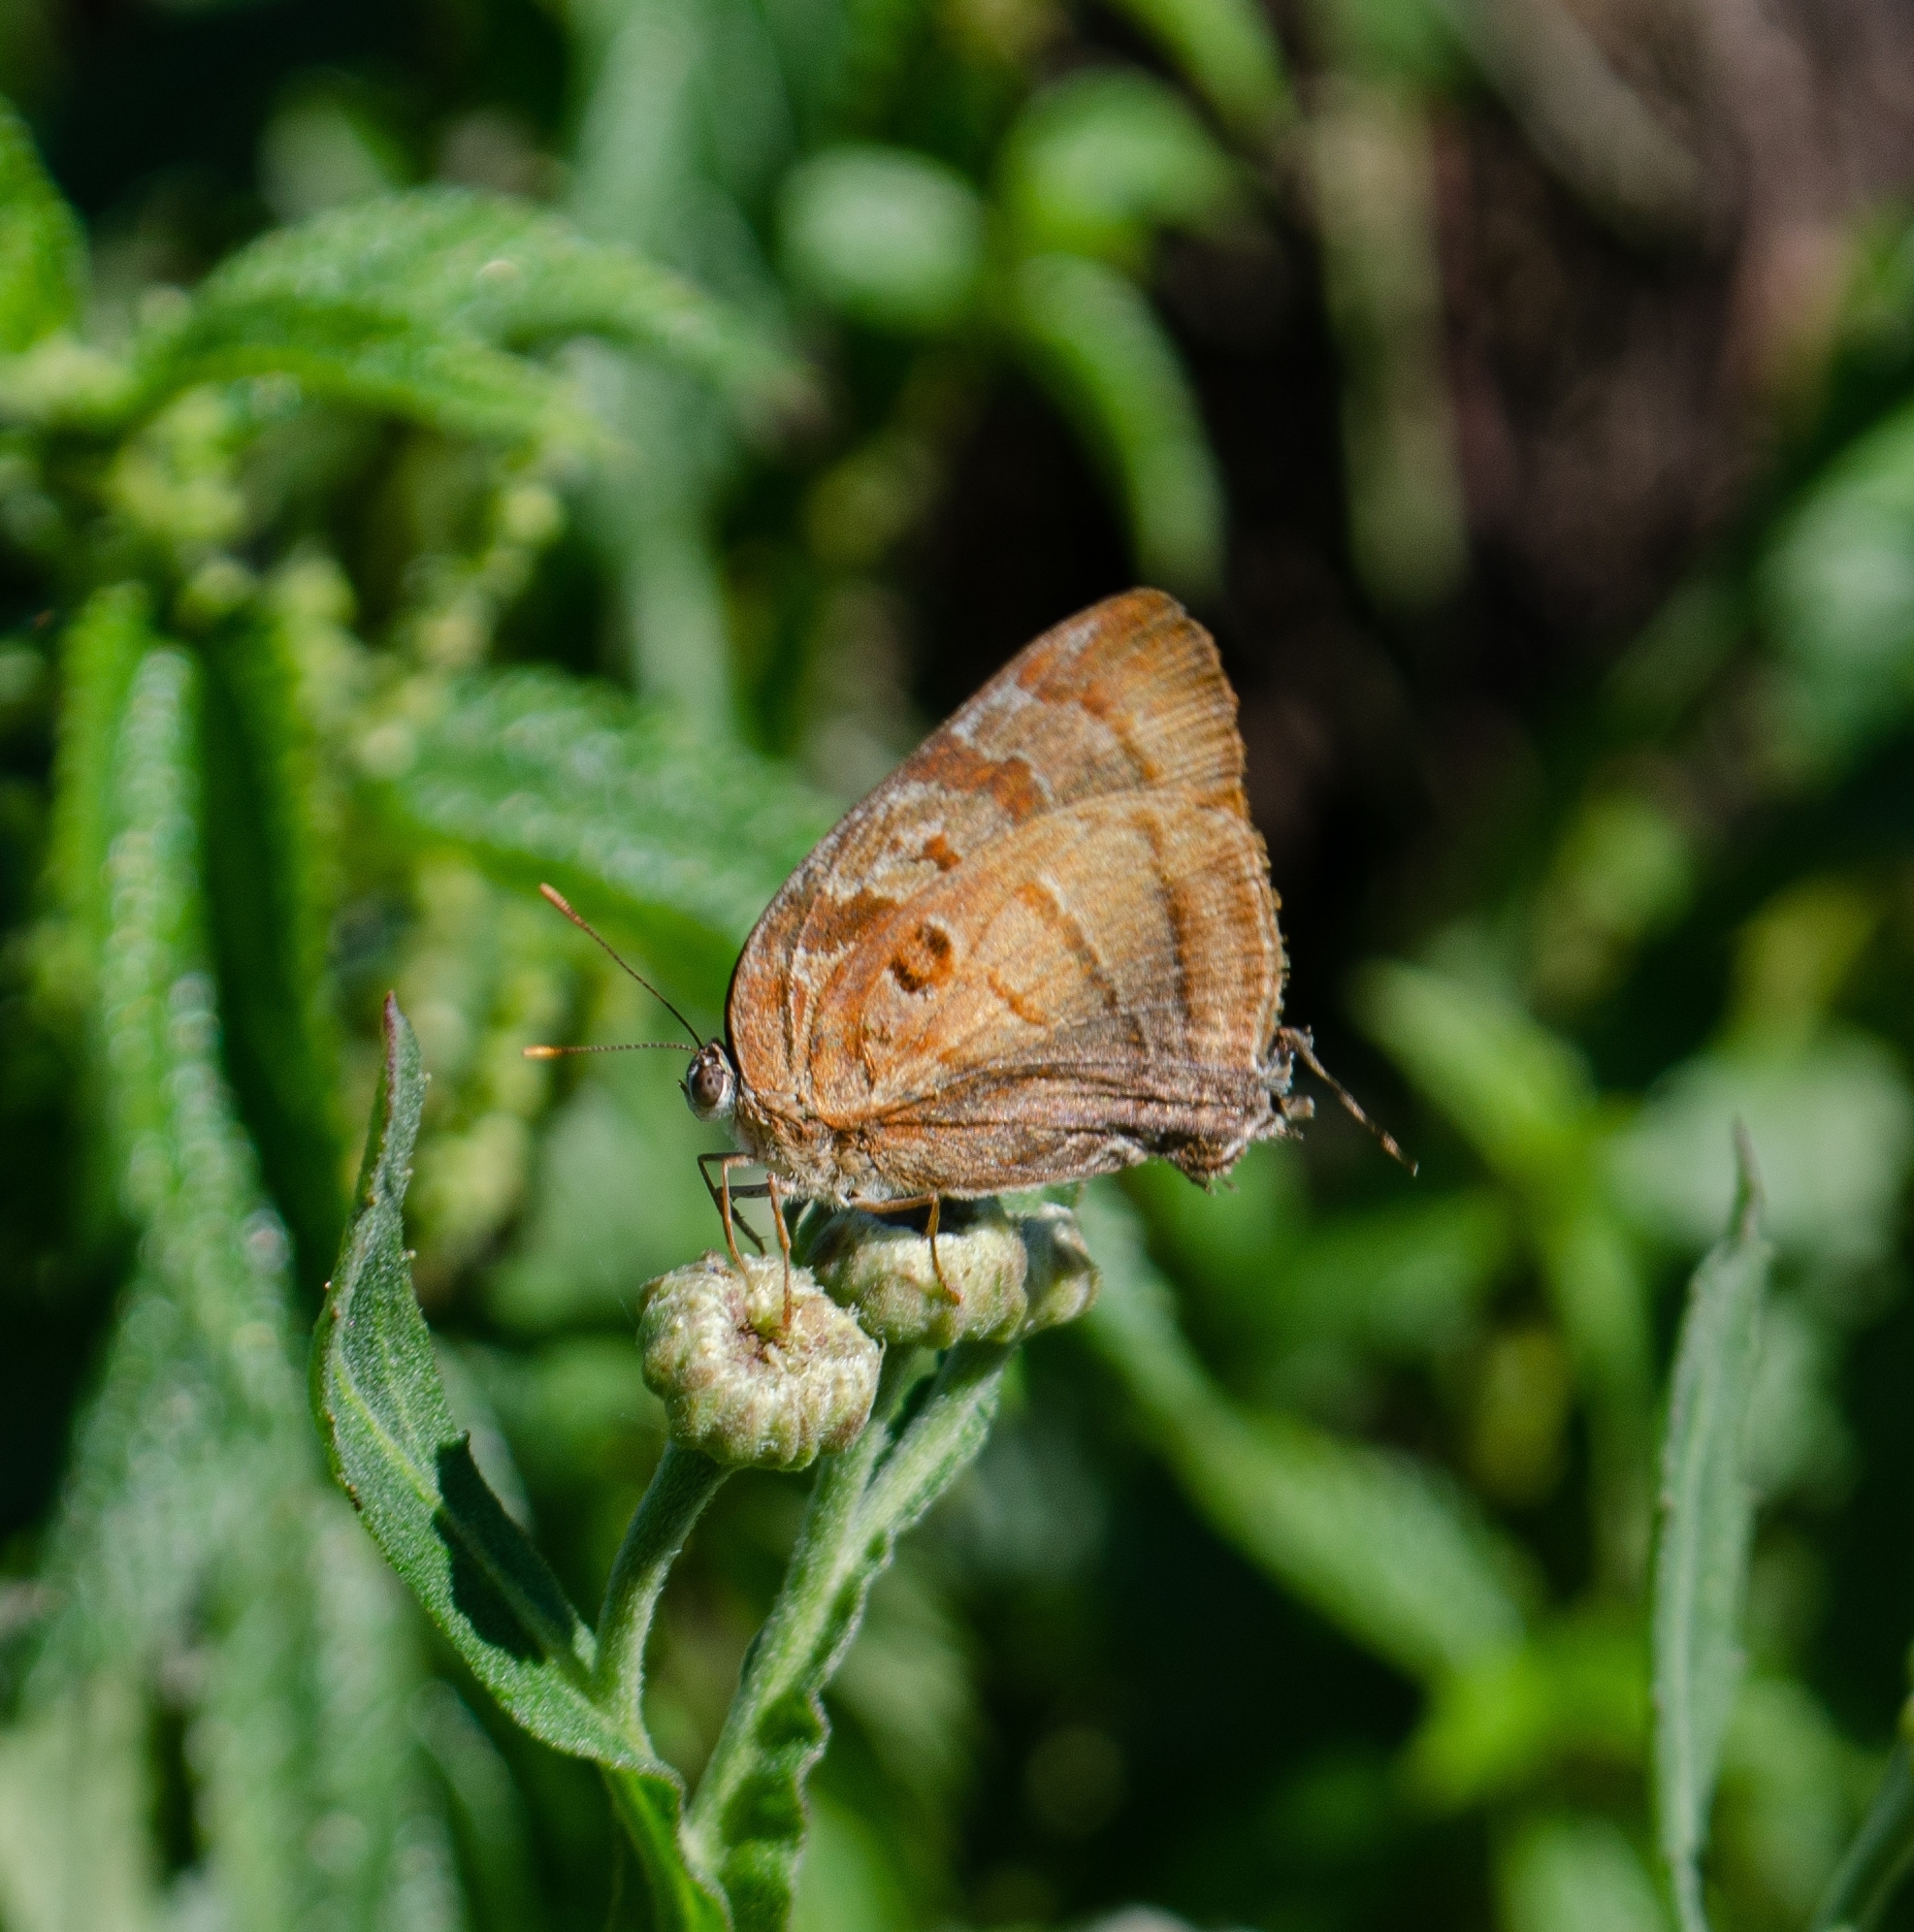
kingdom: Animalia
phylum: Arthropoda
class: Insecta
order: Lepidoptera
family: Lycaenidae
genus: Rekoa
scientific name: Rekoa meton
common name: Meton hairstreak
